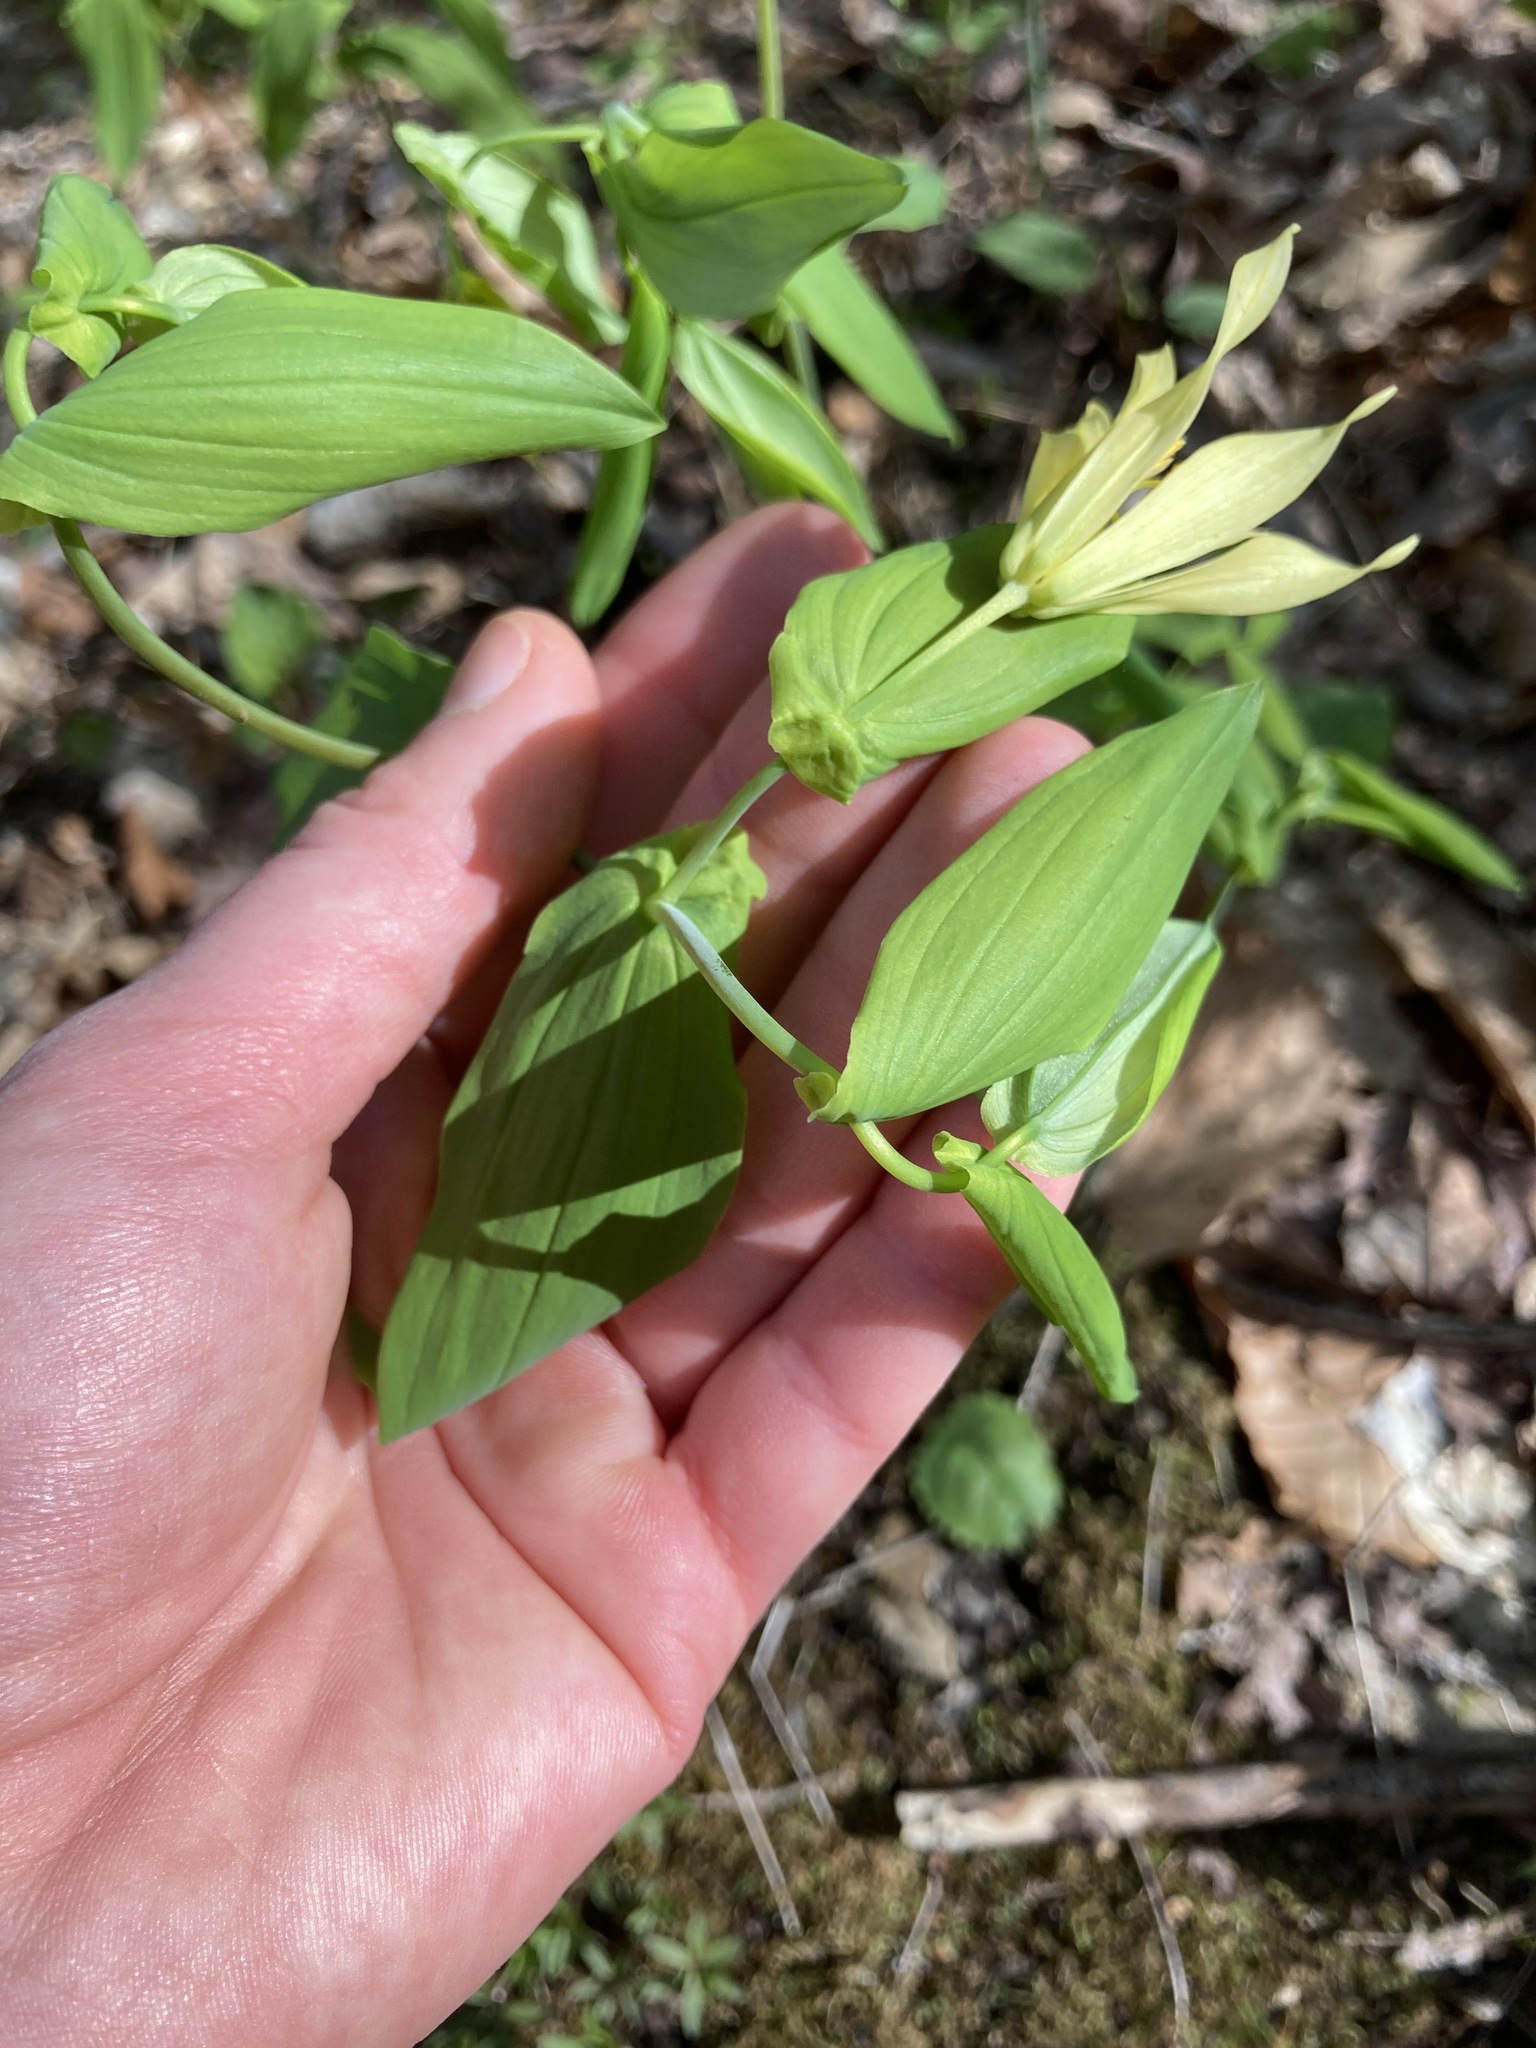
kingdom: Plantae
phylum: Tracheophyta
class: Liliopsida
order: Liliales
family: Colchicaceae
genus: Uvularia
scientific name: Uvularia grandiflora
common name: Bellwort
